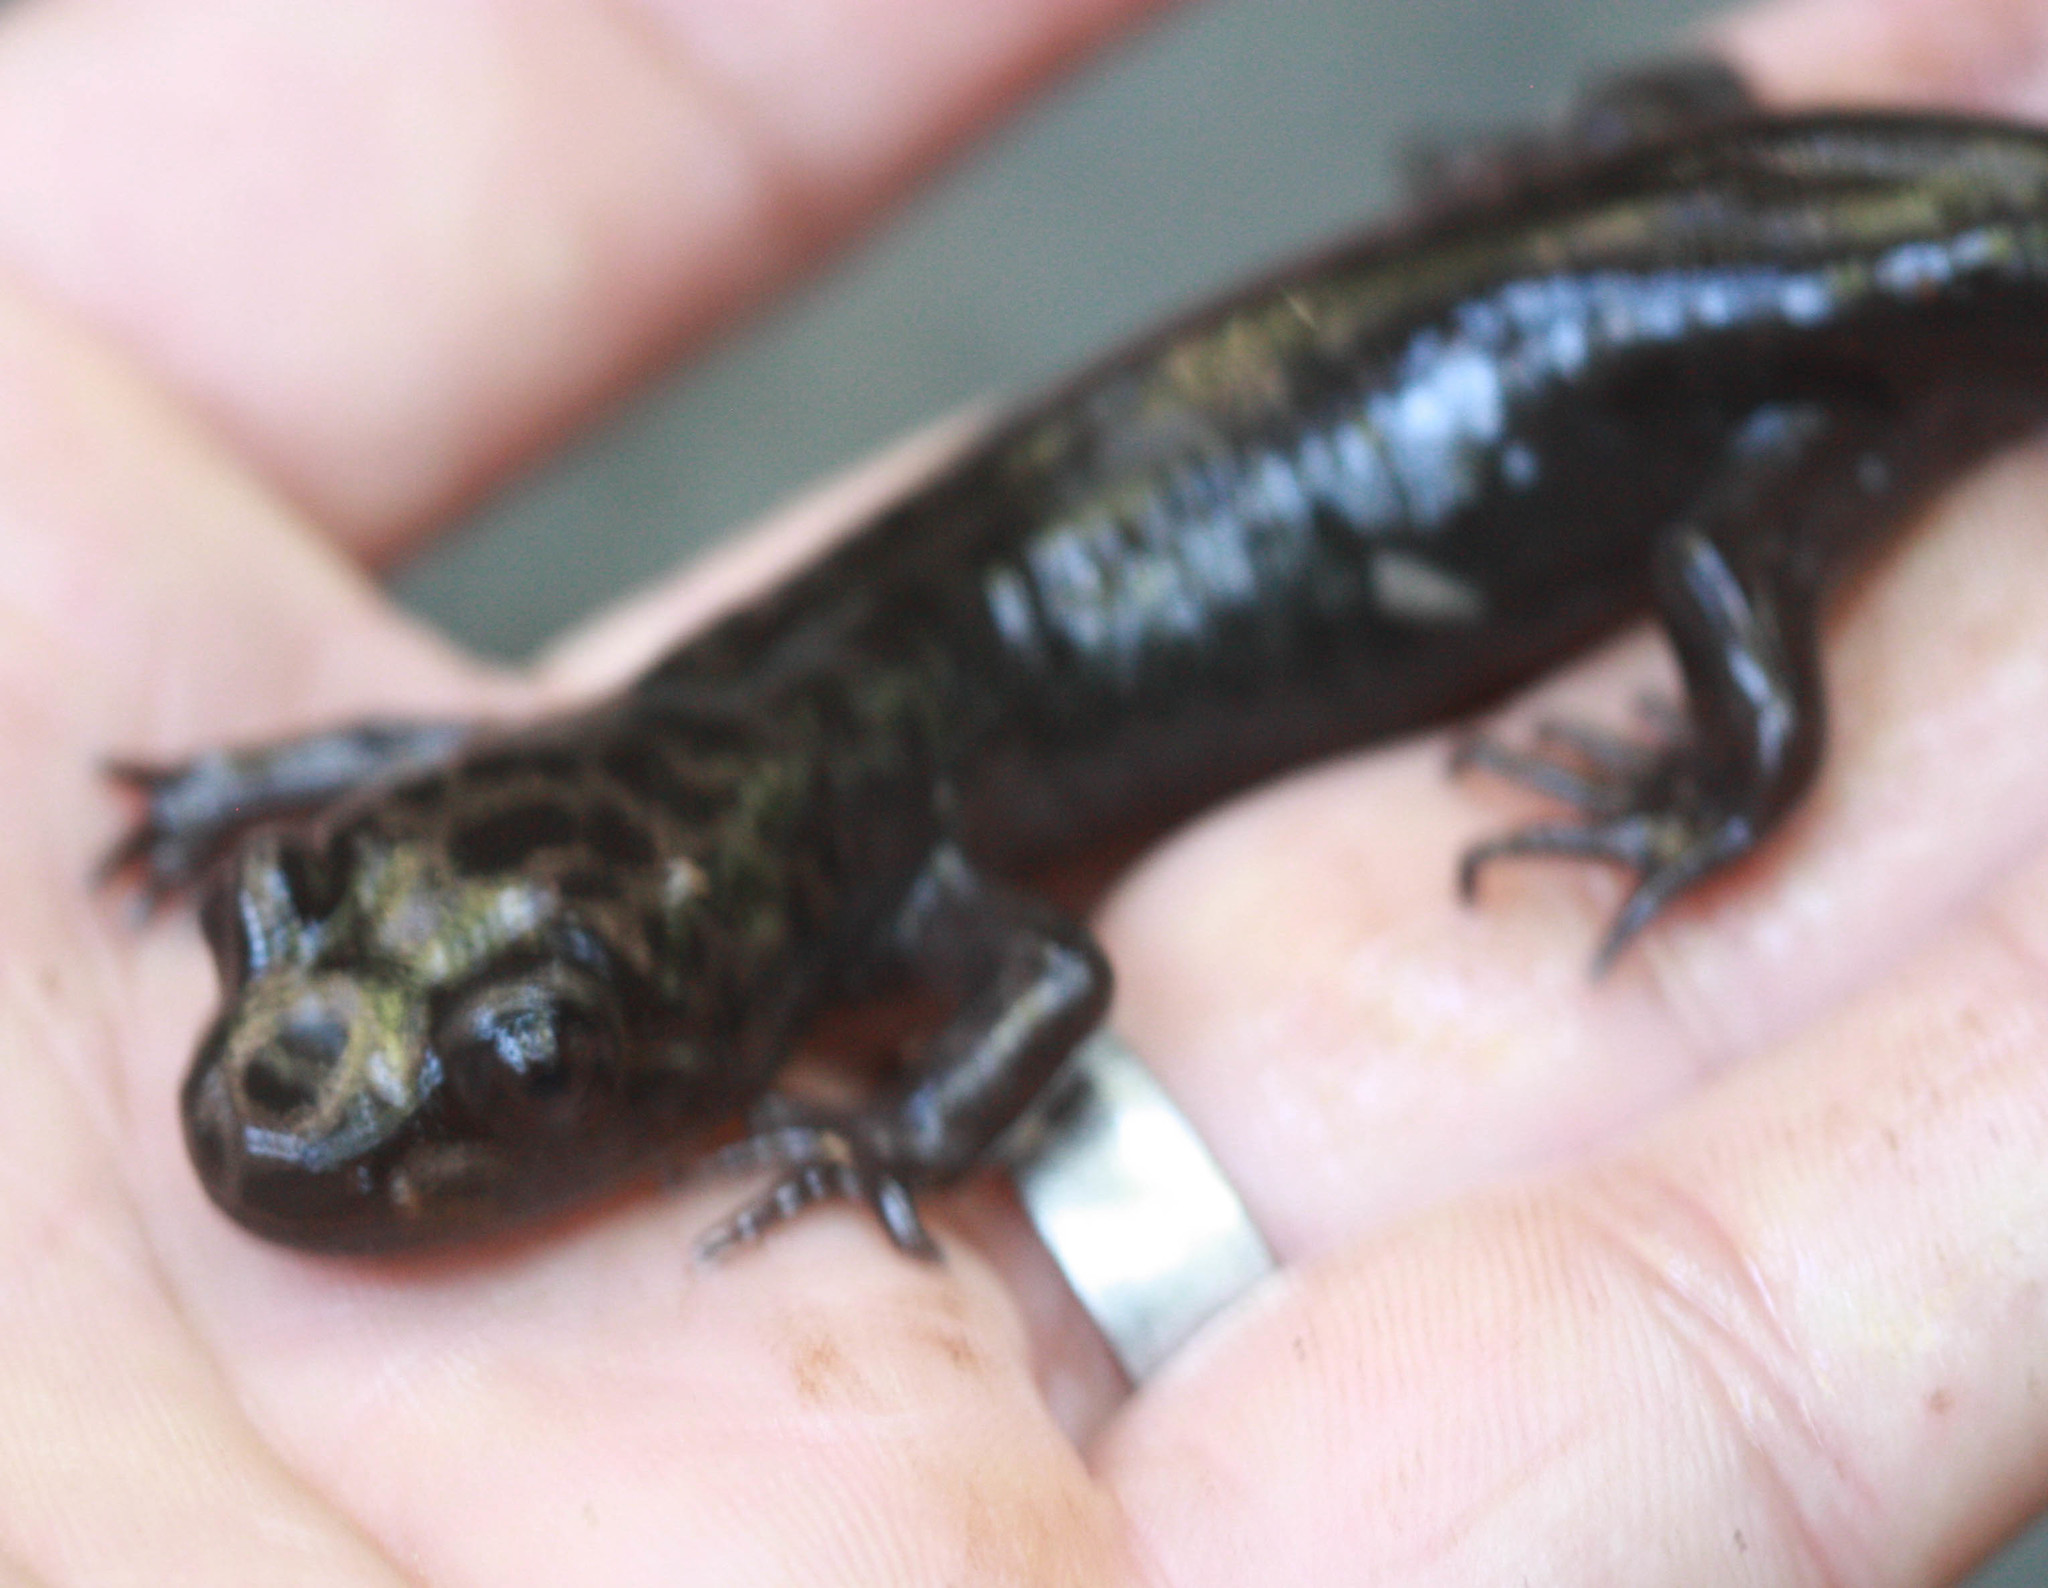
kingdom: Animalia
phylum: Chordata
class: Amphibia
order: Caudata
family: Ambystomatidae
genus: Dicamptodon
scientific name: Dicamptodon ensatus
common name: California giant salamander
